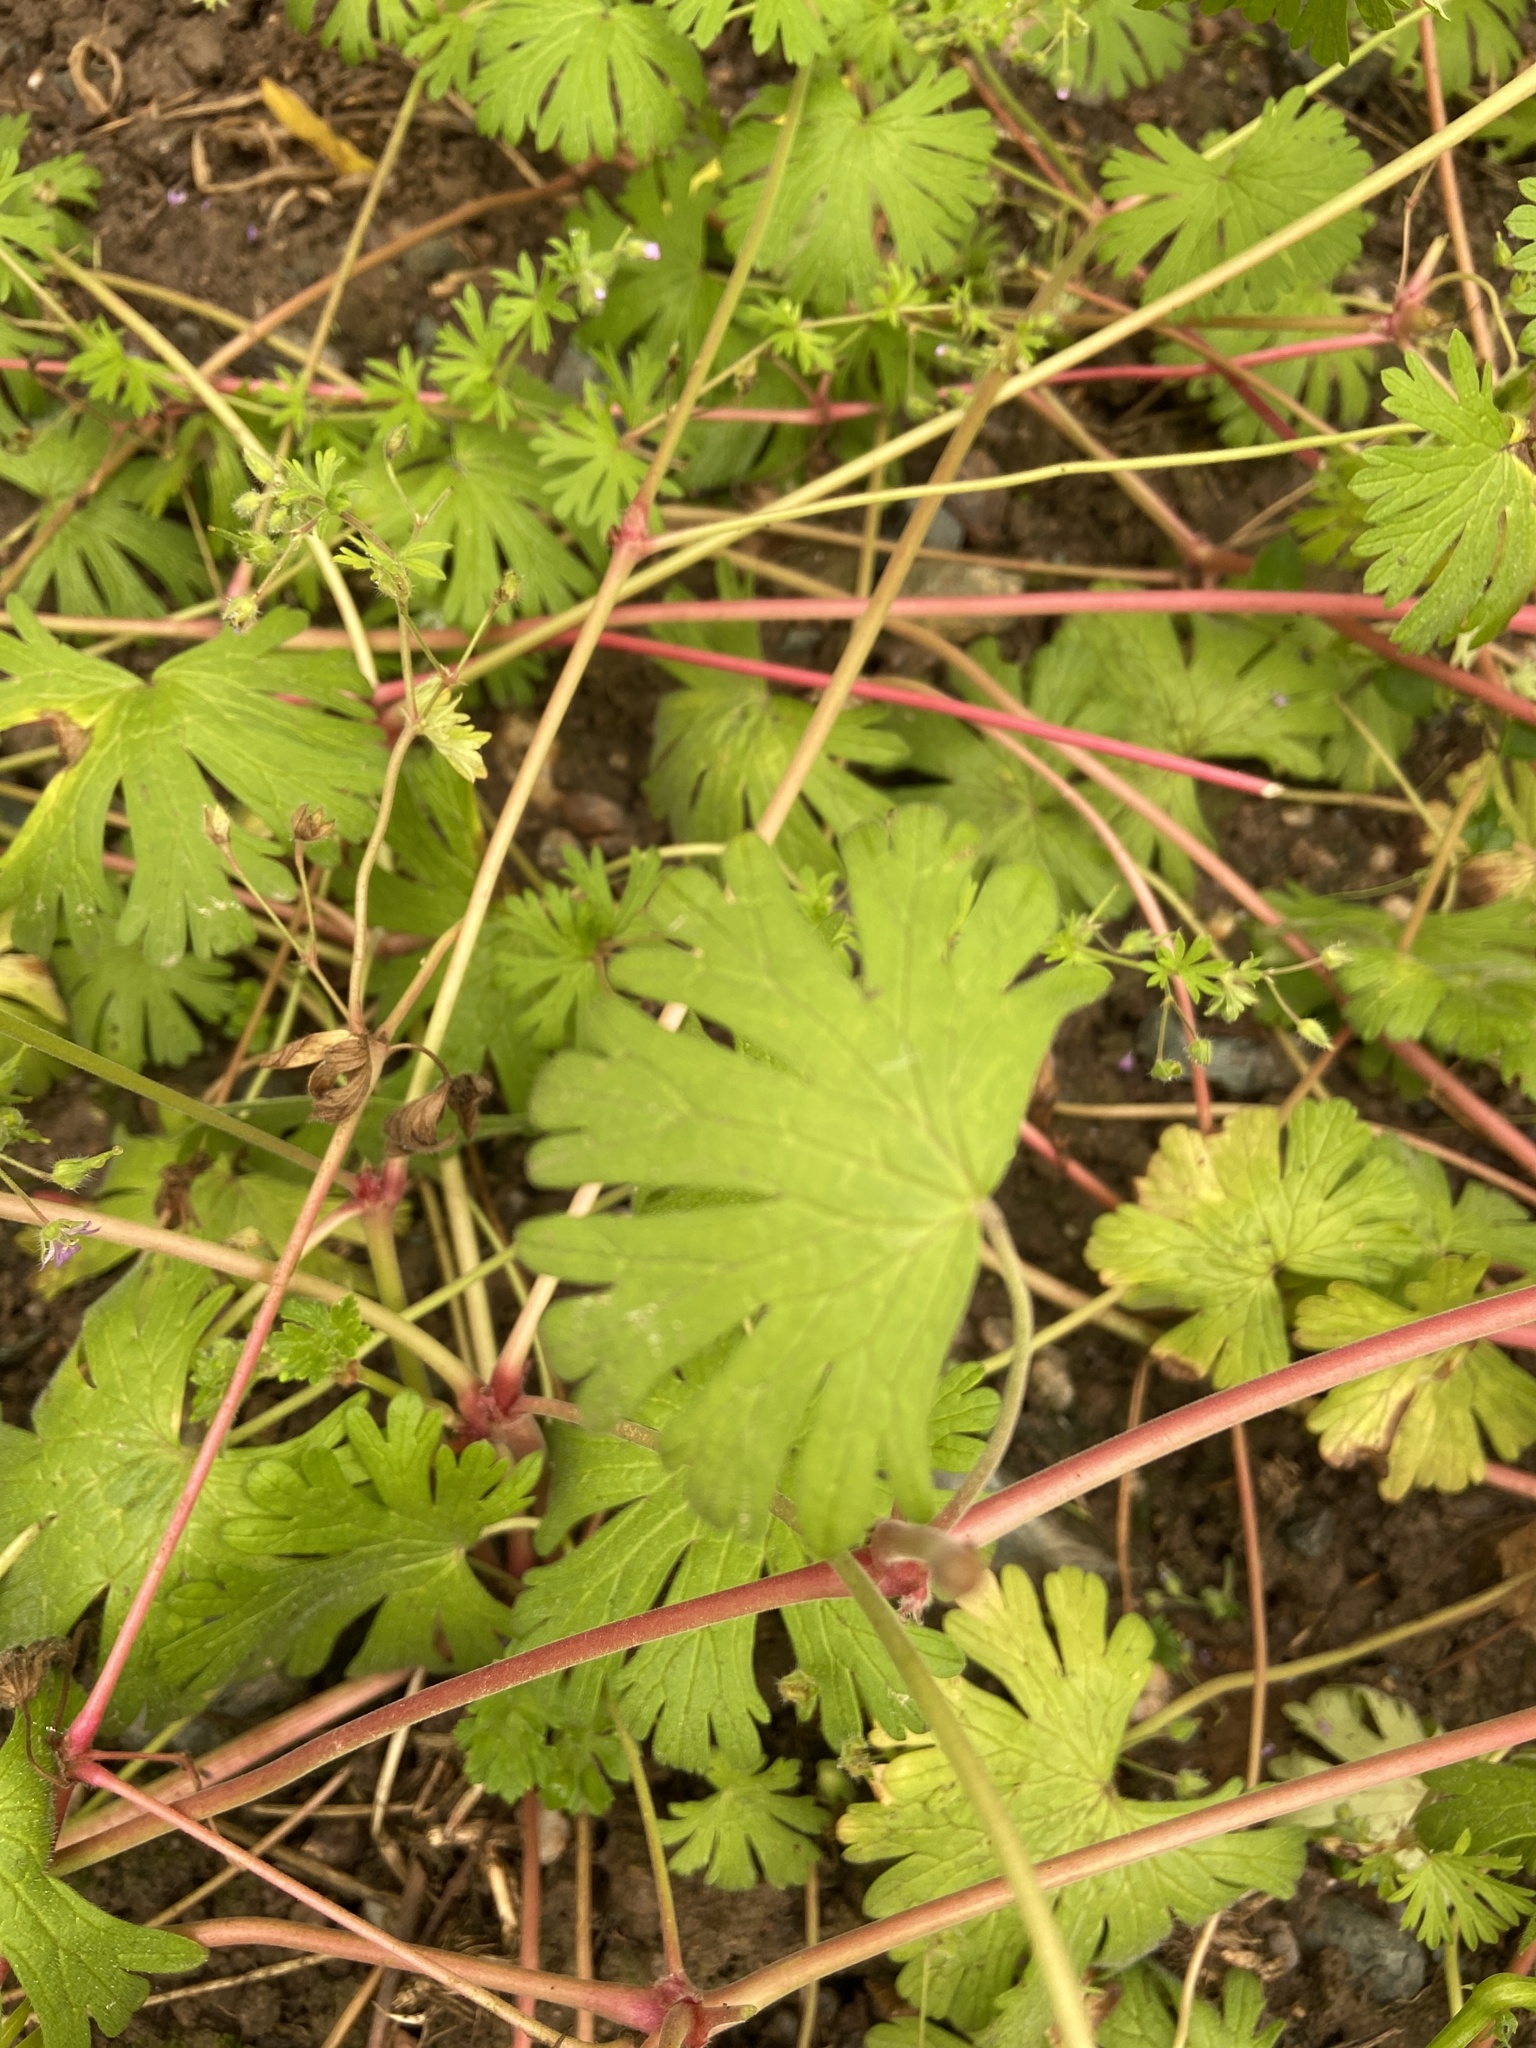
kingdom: Plantae
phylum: Tracheophyta
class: Magnoliopsida
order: Geraniales
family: Geraniaceae
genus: Geranium
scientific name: Geranium pusillum
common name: Small geranium
